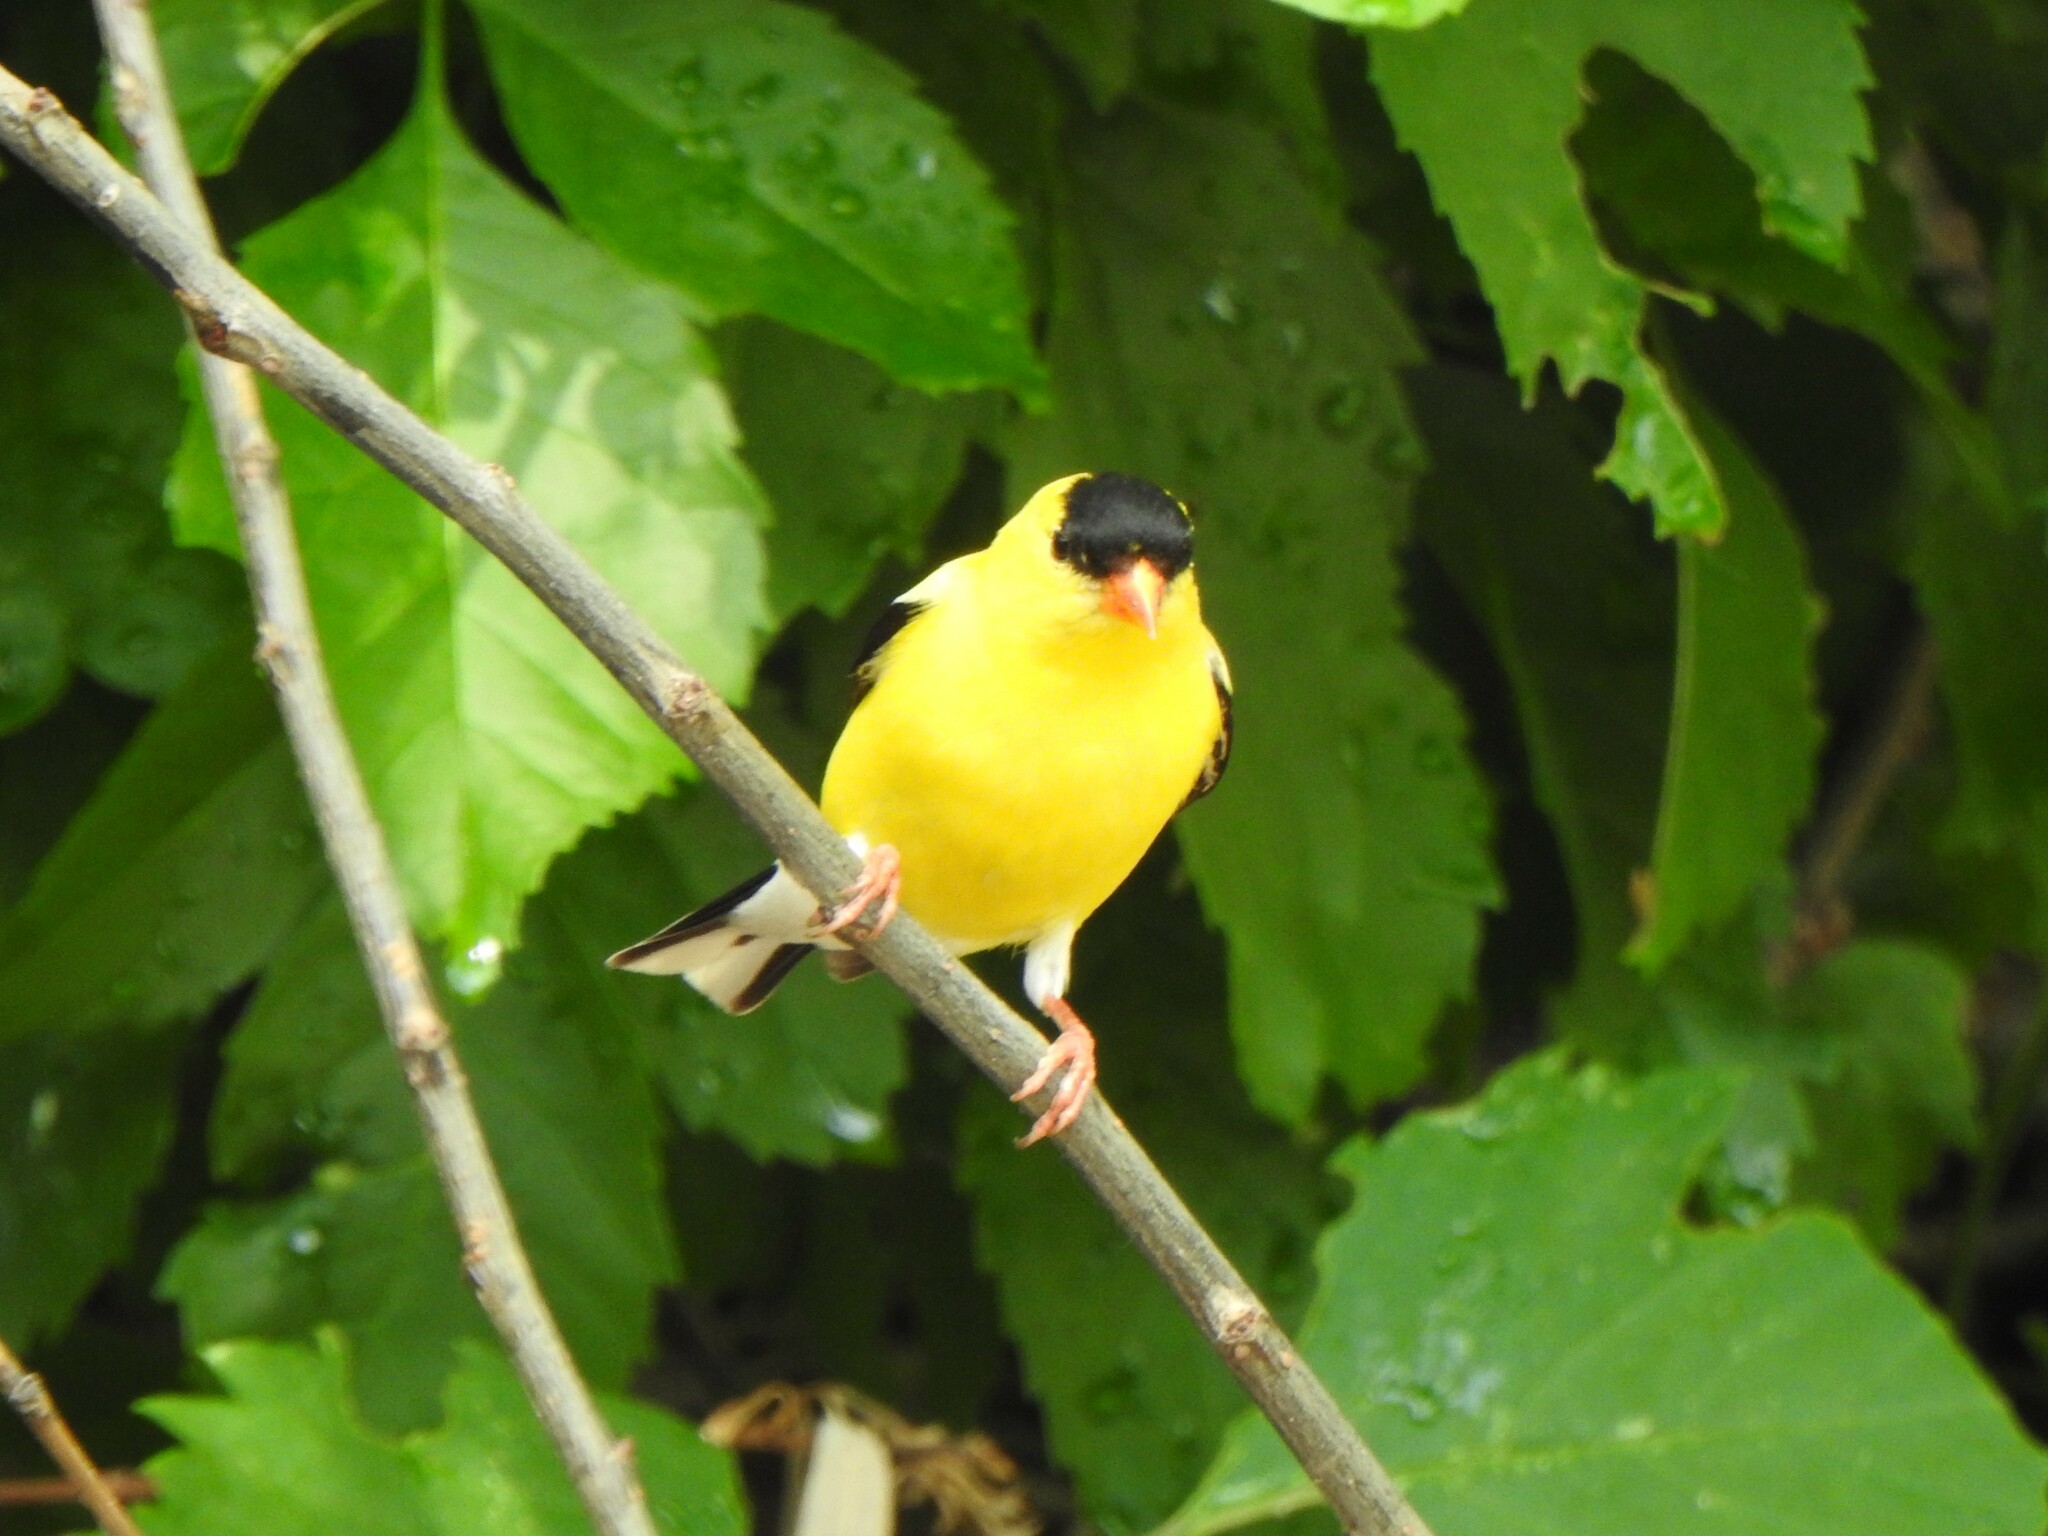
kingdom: Animalia
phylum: Chordata
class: Aves
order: Passeriformes
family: Fringillidae
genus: Spinus
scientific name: Spinus tristis
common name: American goldfinch
